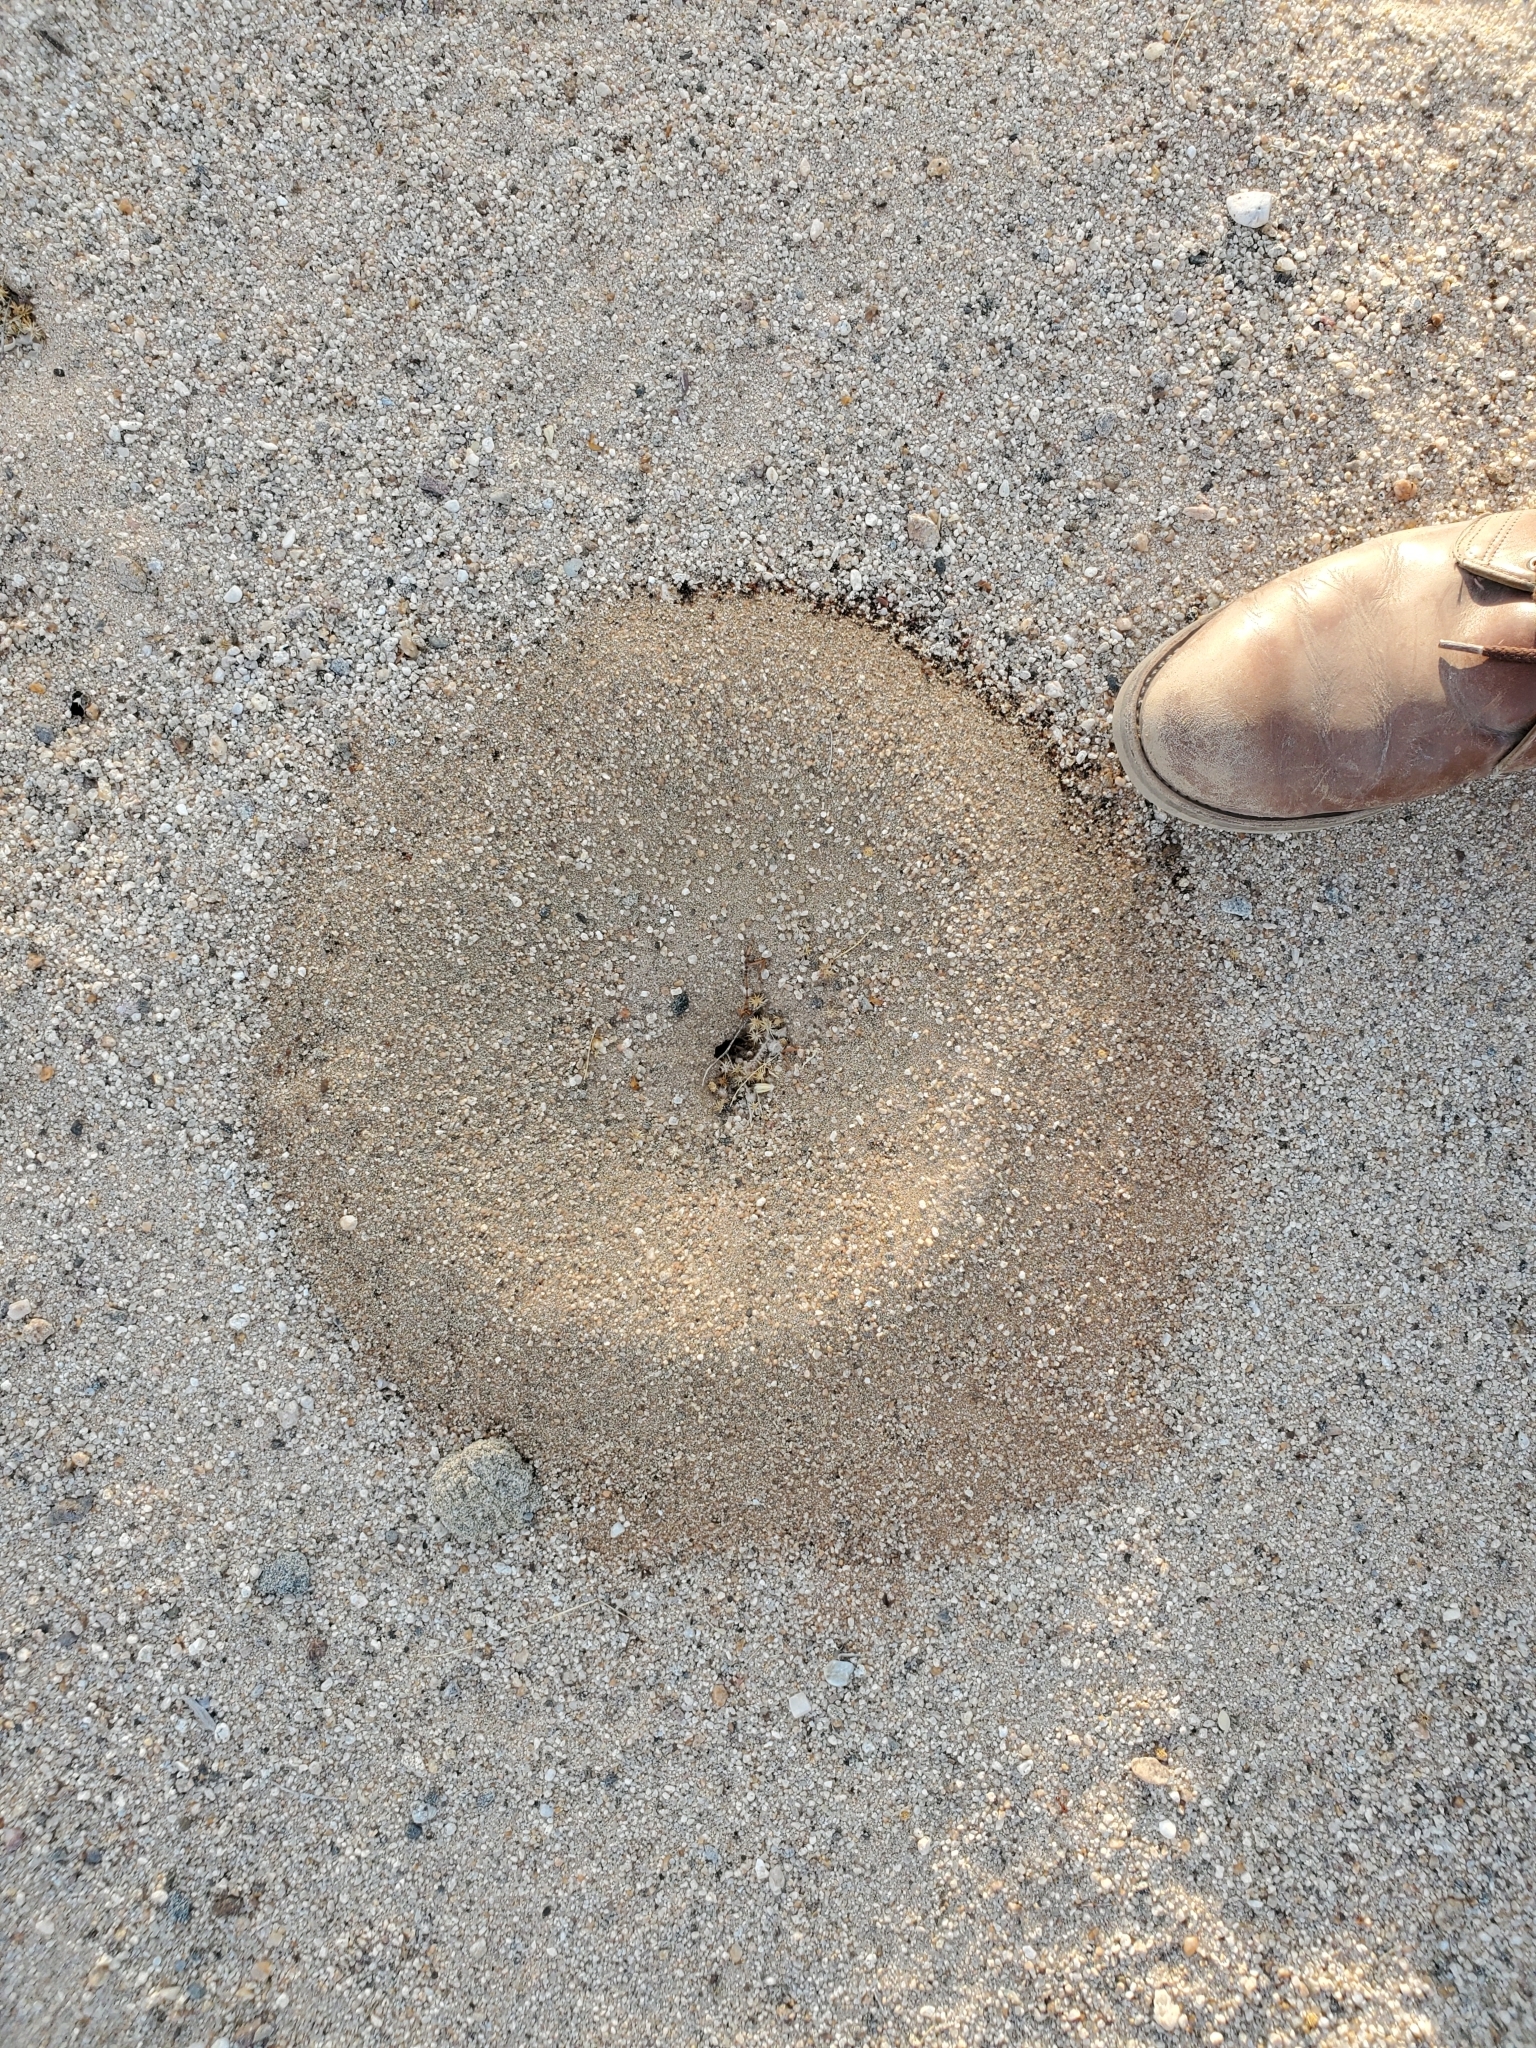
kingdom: Animalia
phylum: Arthropoda
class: Insecta
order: Hymenoptera
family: Formicidae
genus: Pogonomyrmex
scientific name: Pogonomyrmex californicus
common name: California harvester ant
